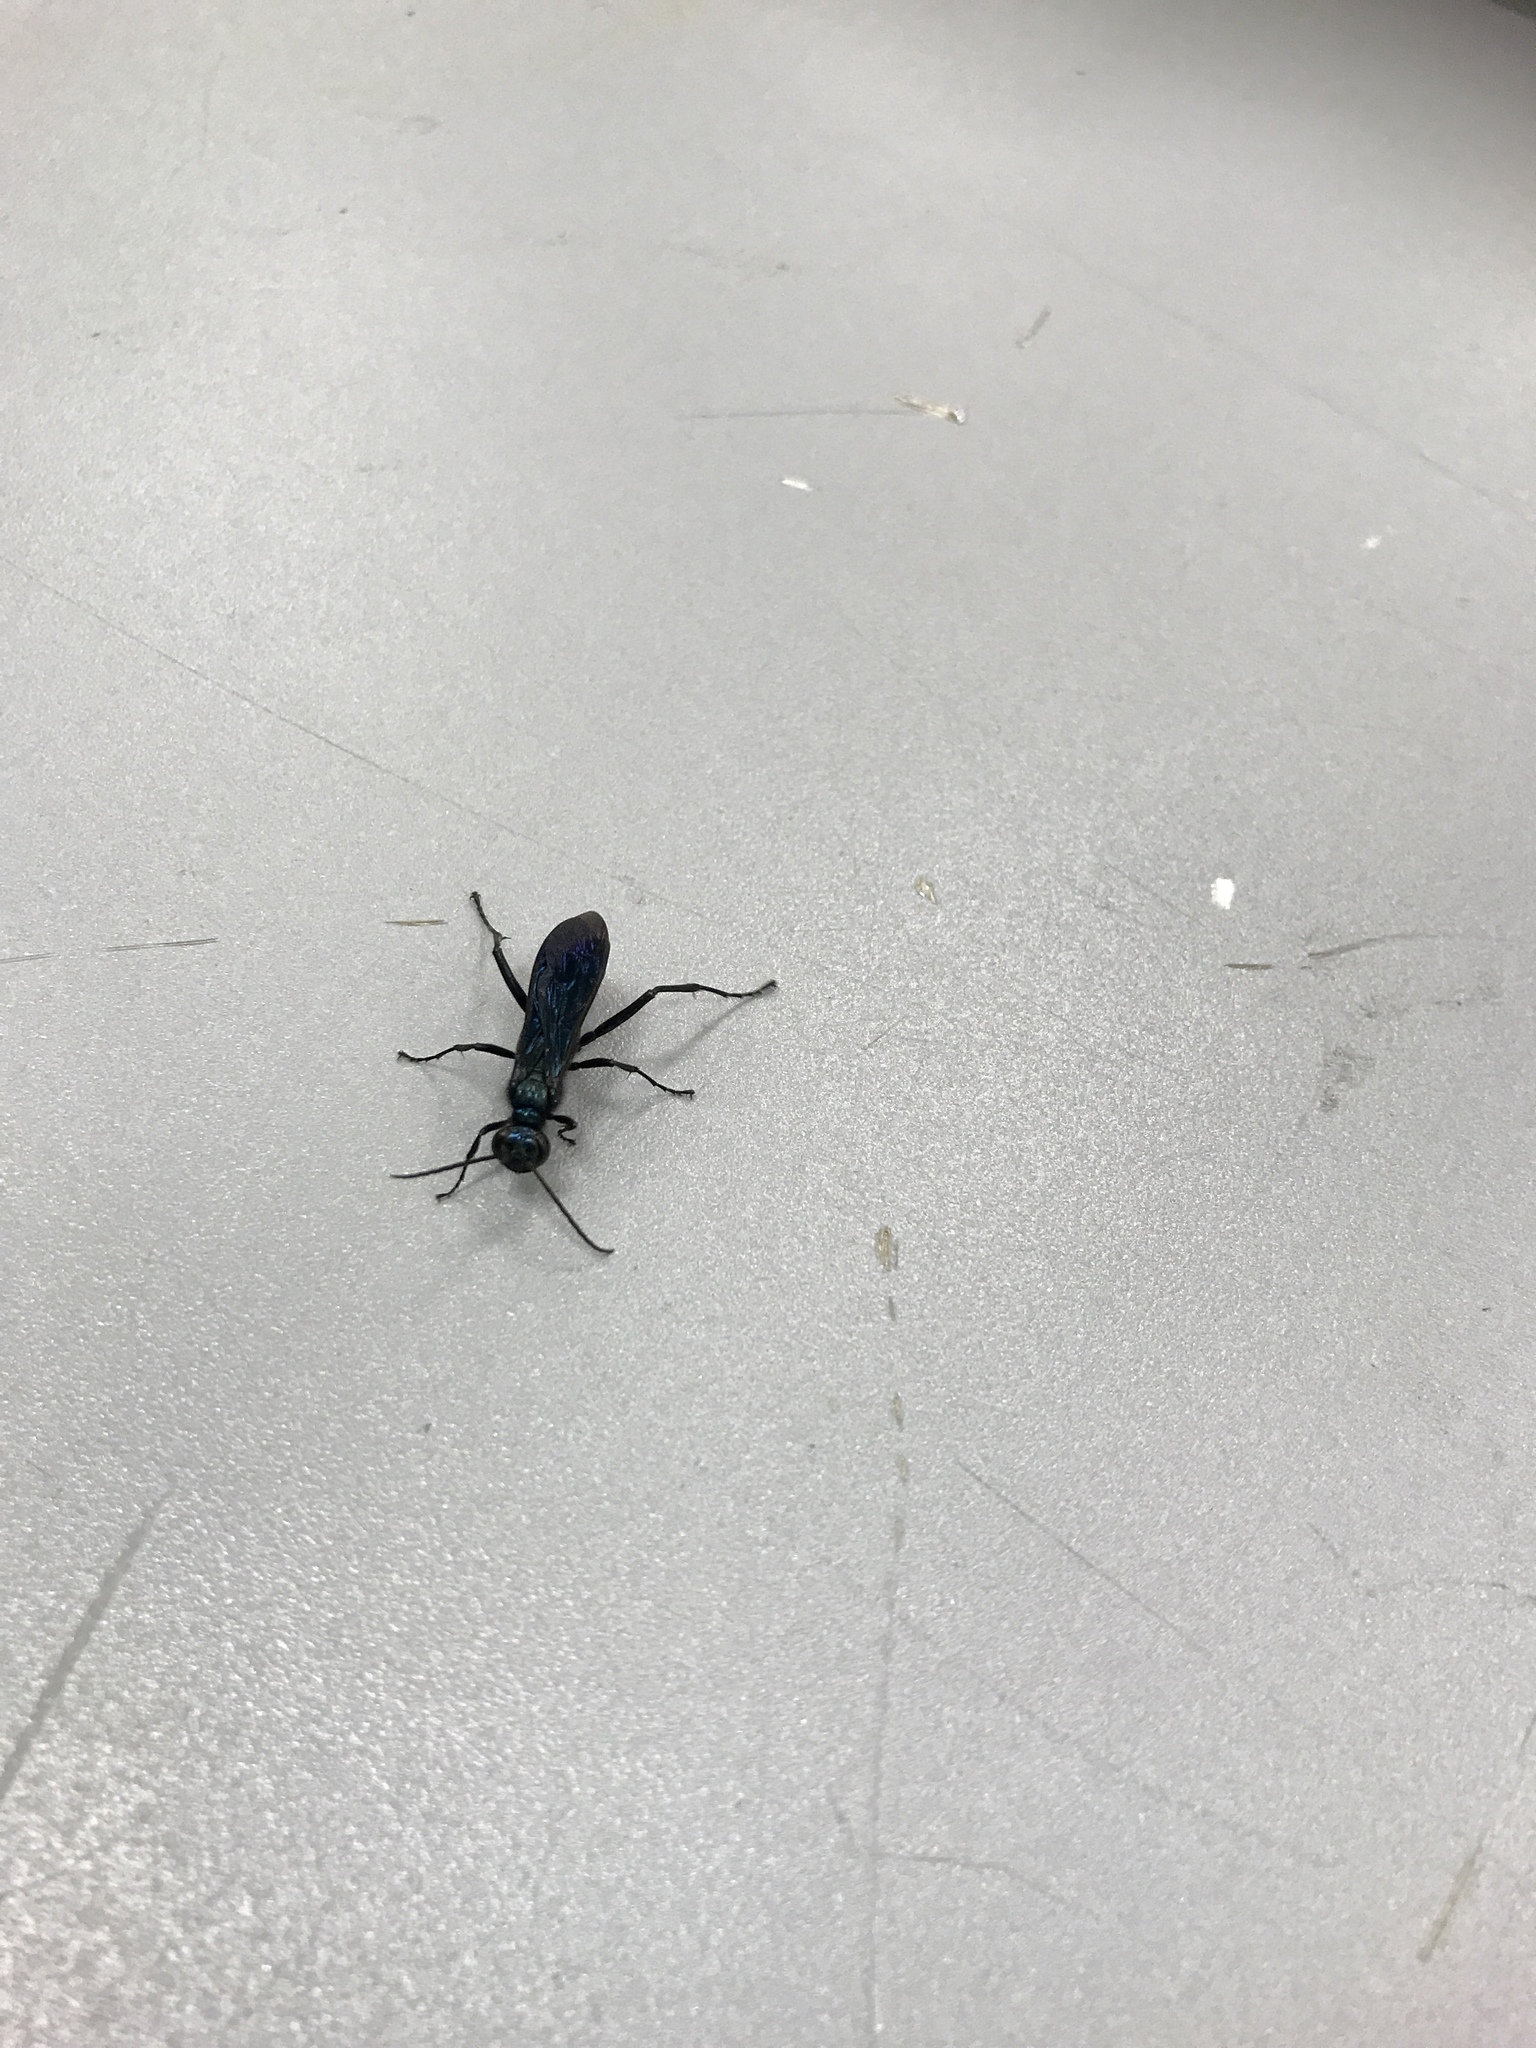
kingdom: Animalia
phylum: Arthropoda
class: Insecta
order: Hymenoptera
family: Sphecidae
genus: Chalybion
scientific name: Chalybion californicum
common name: Mud dauber
